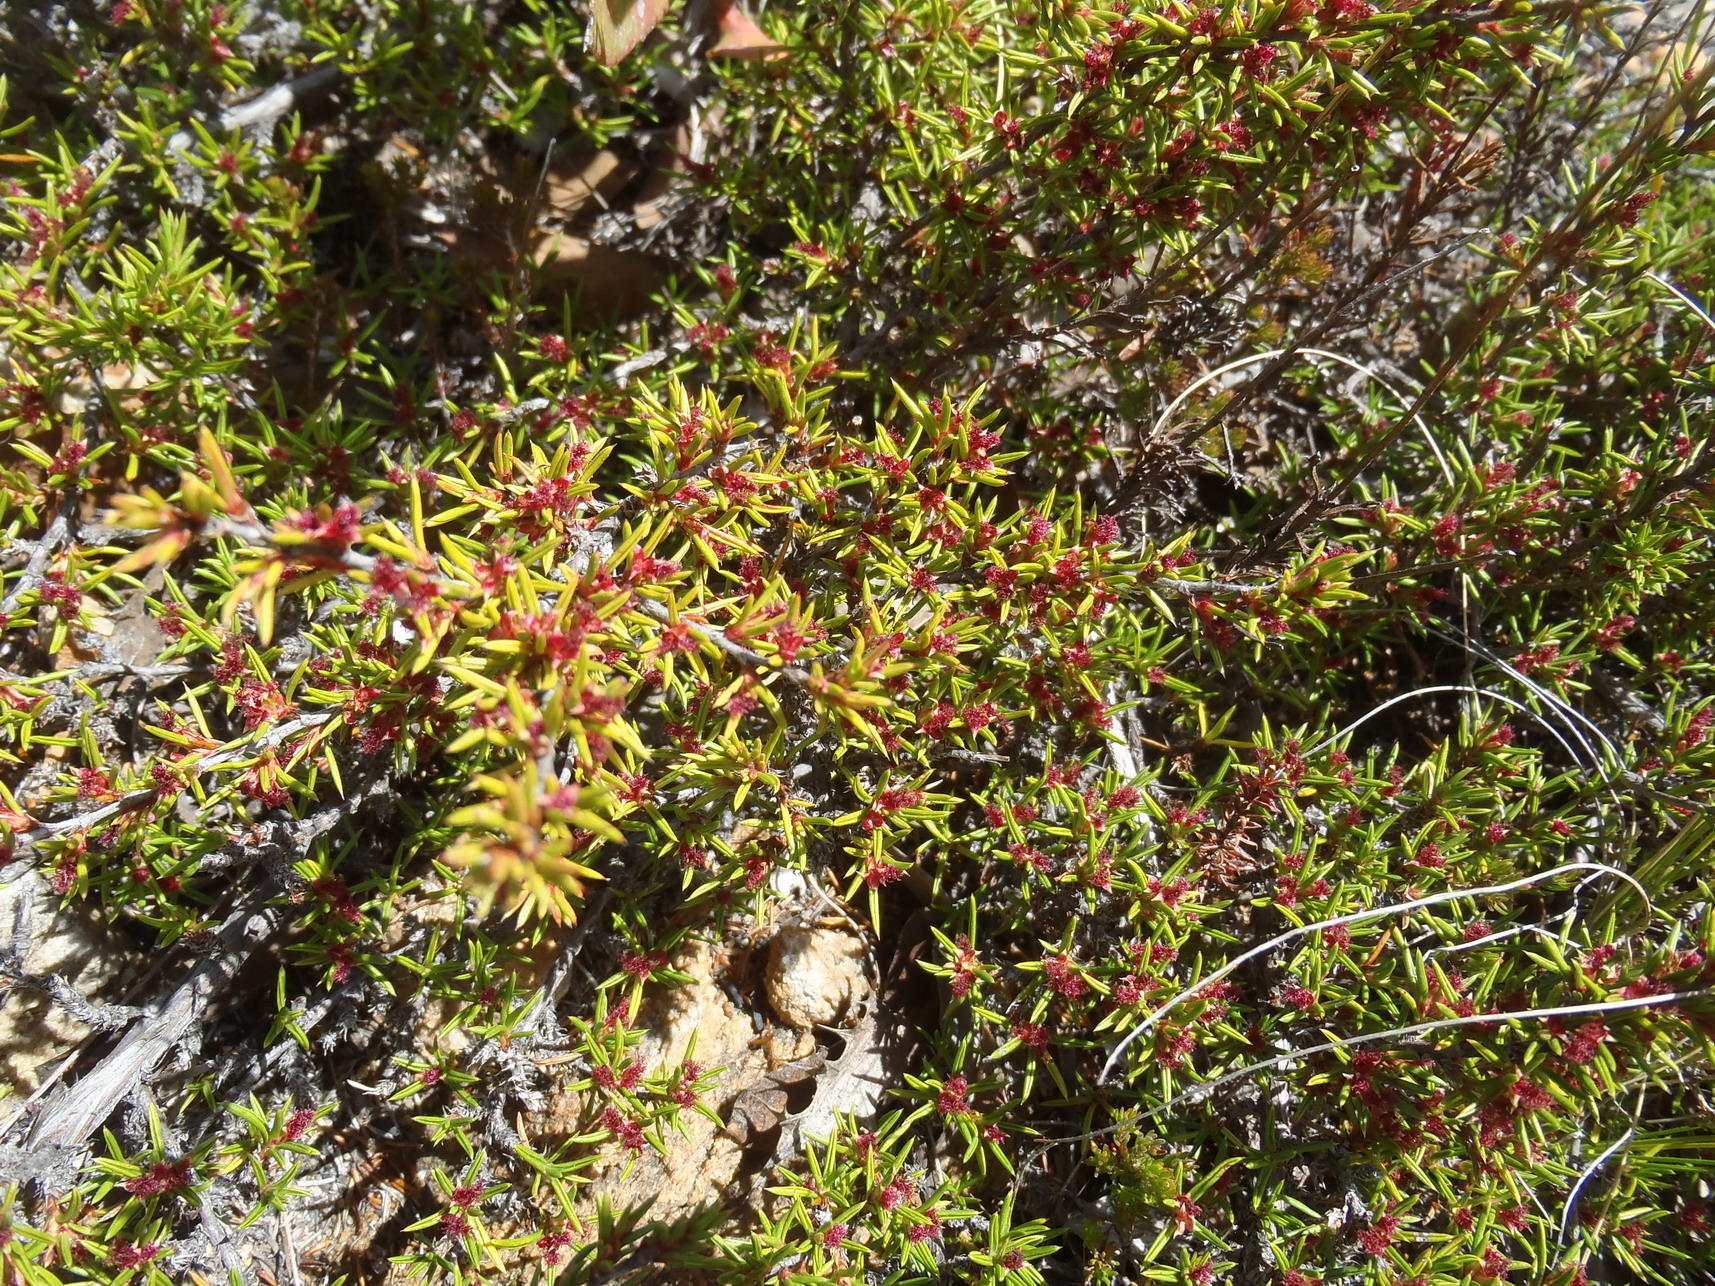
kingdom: Plantae
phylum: Tracheophyta
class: Magnoliopsida
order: Rosales
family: Rosaceae
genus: Cliffortia
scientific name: Cliffortia neglecta
